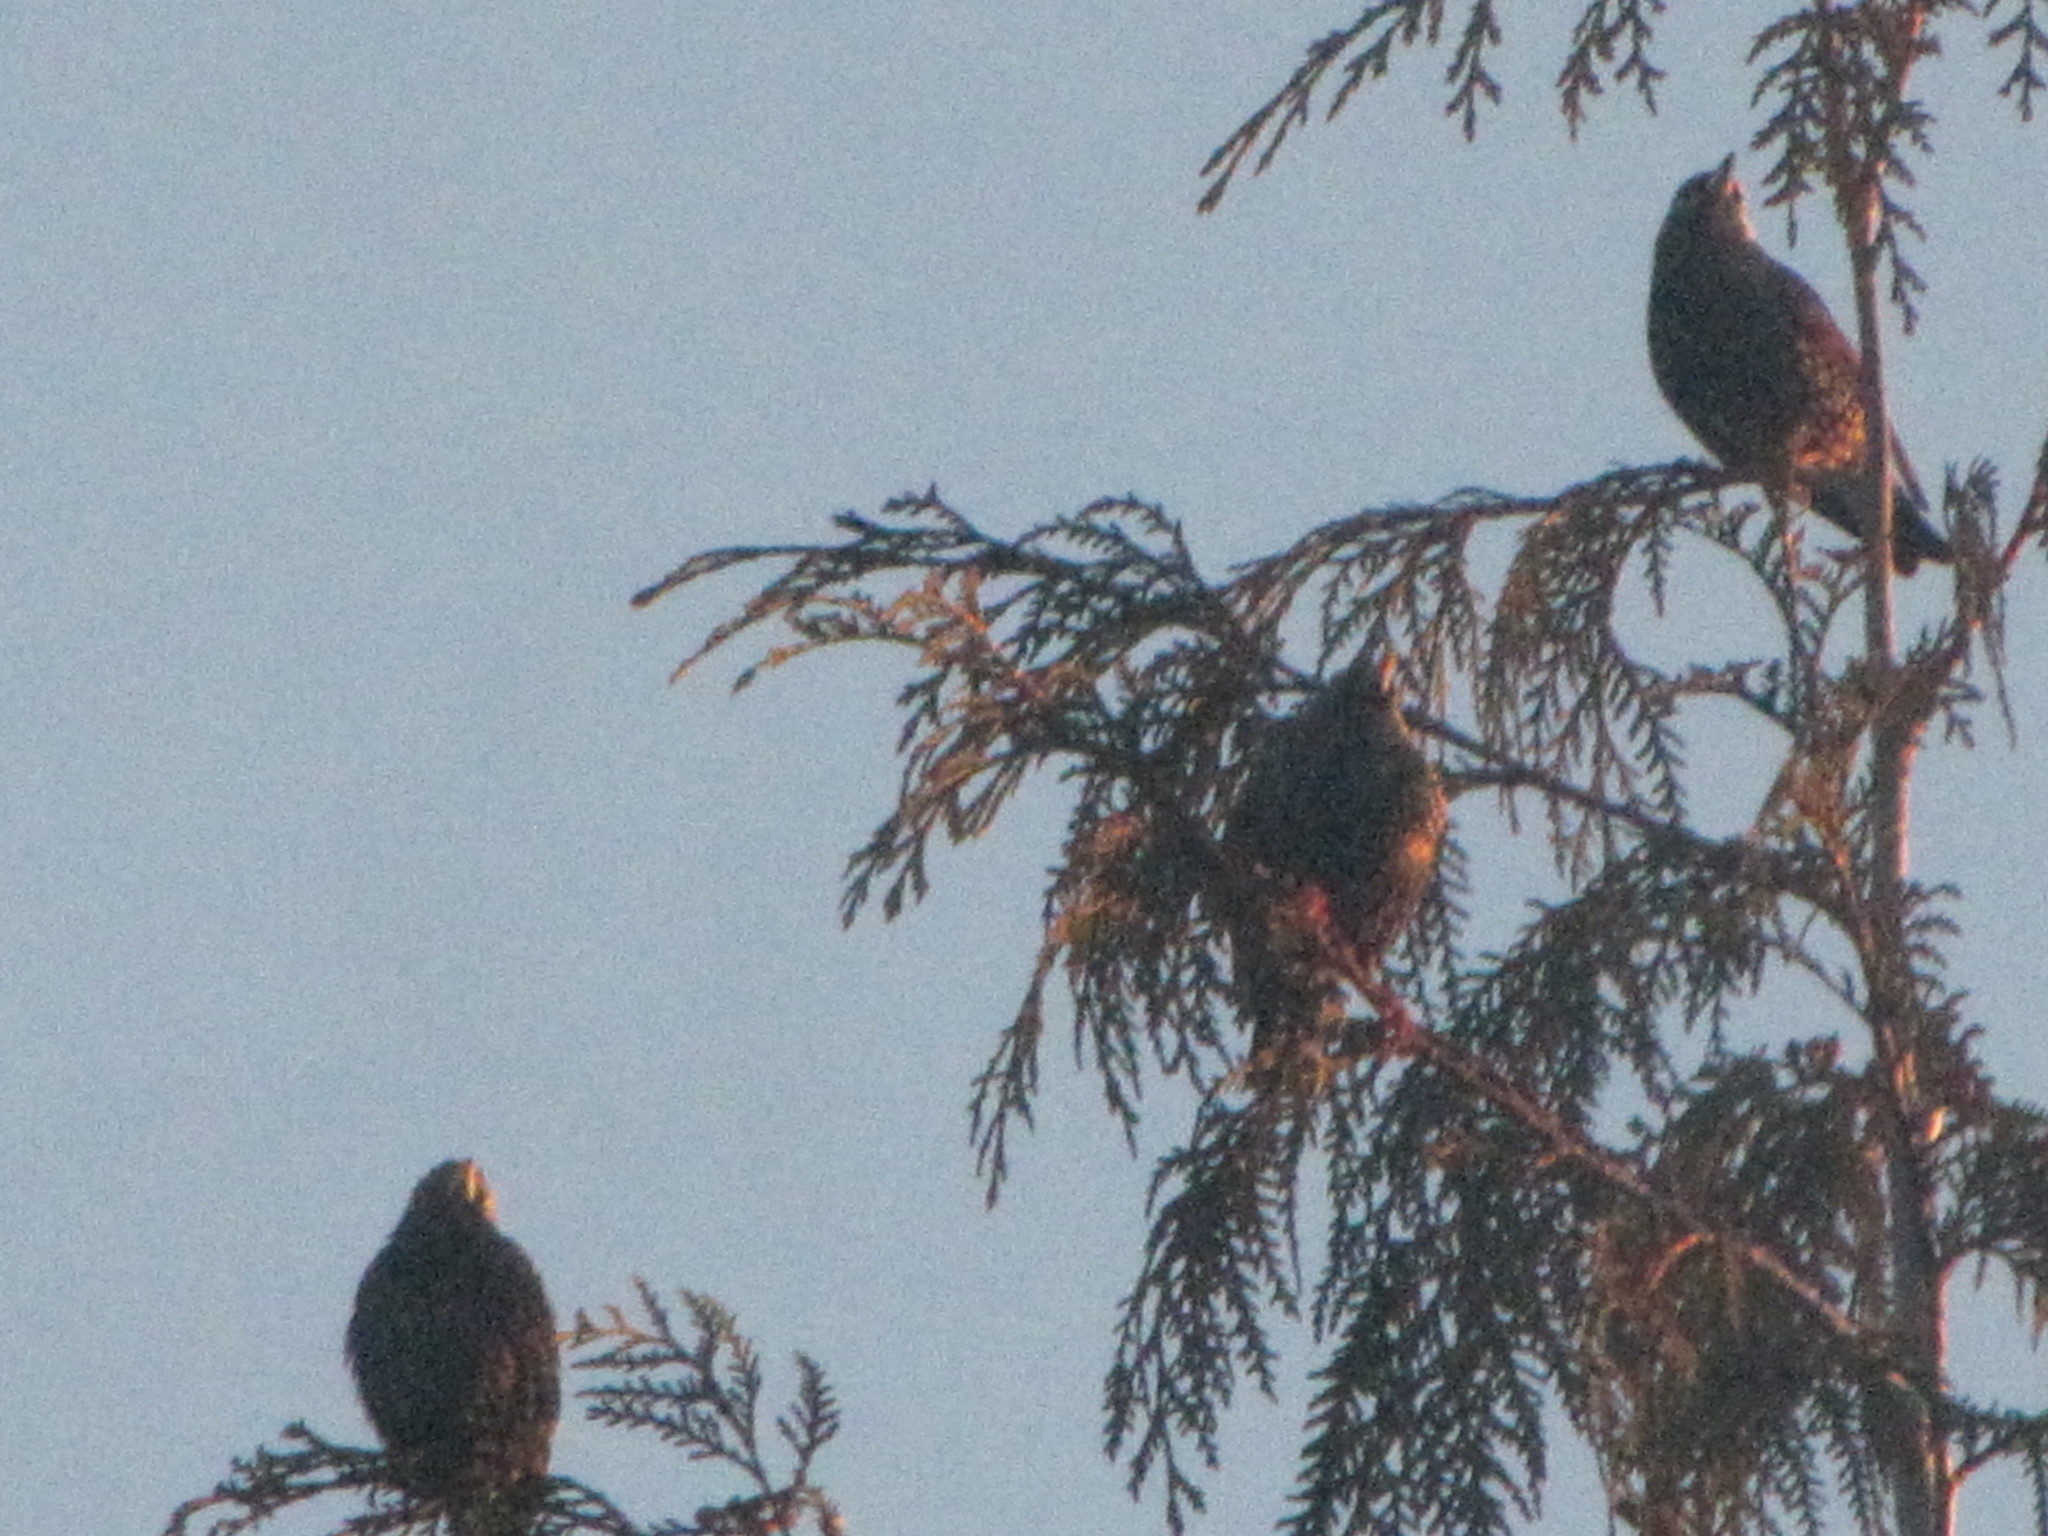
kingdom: Animalia
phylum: Chordata
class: Aves
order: Passeriformes
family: Sturnidae
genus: Sturnus
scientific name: Sturnus vulgaris
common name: Common starling
